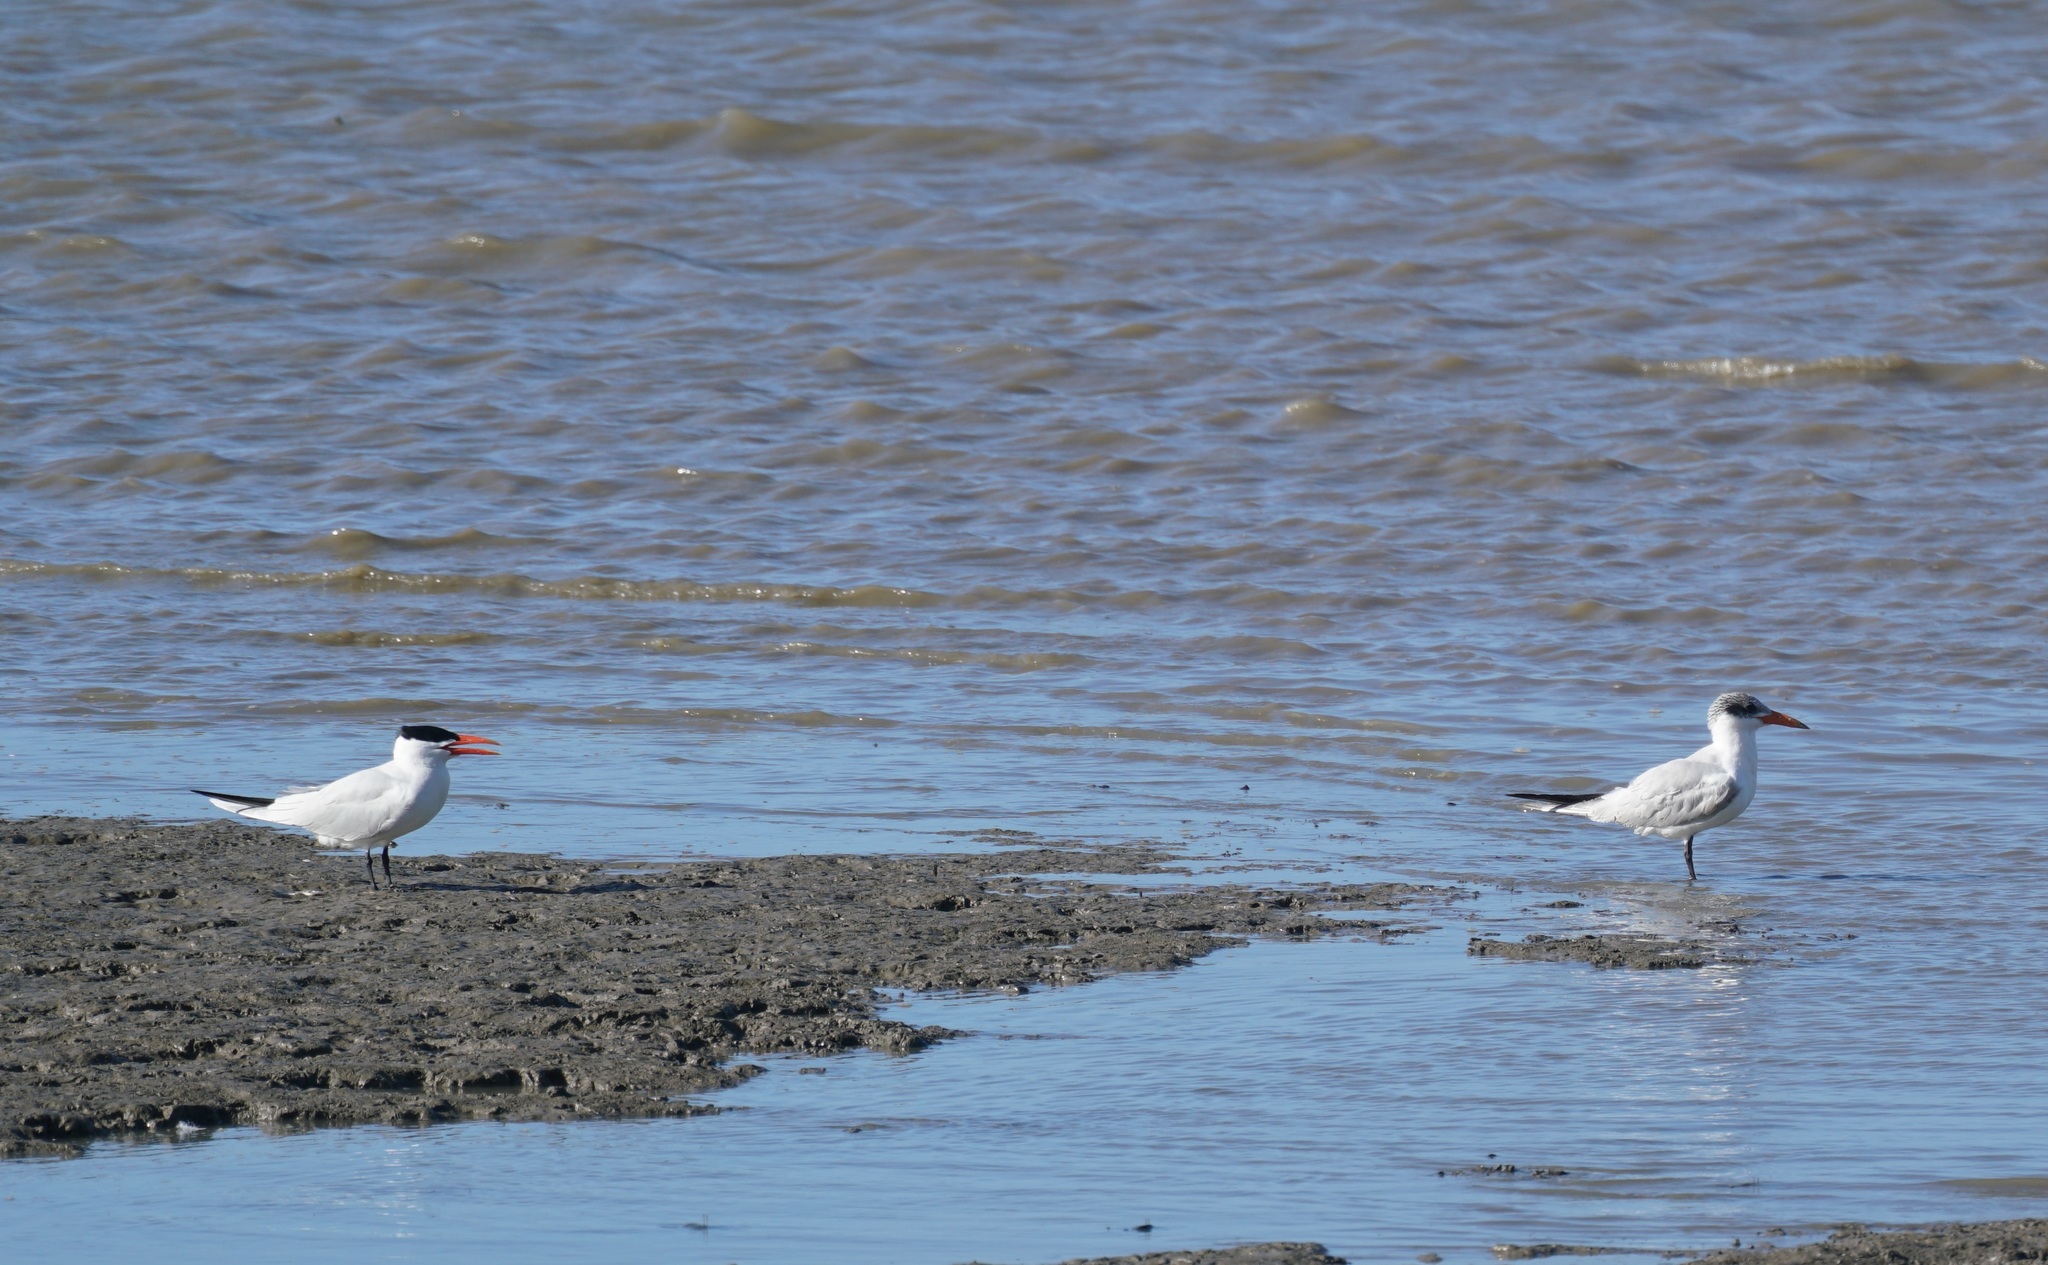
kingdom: Animalia
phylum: Chordata
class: Aves
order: Charadriiformes
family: Laridae
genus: Hydroprogne
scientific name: Hydroprogne caspia
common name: Caspian tern
